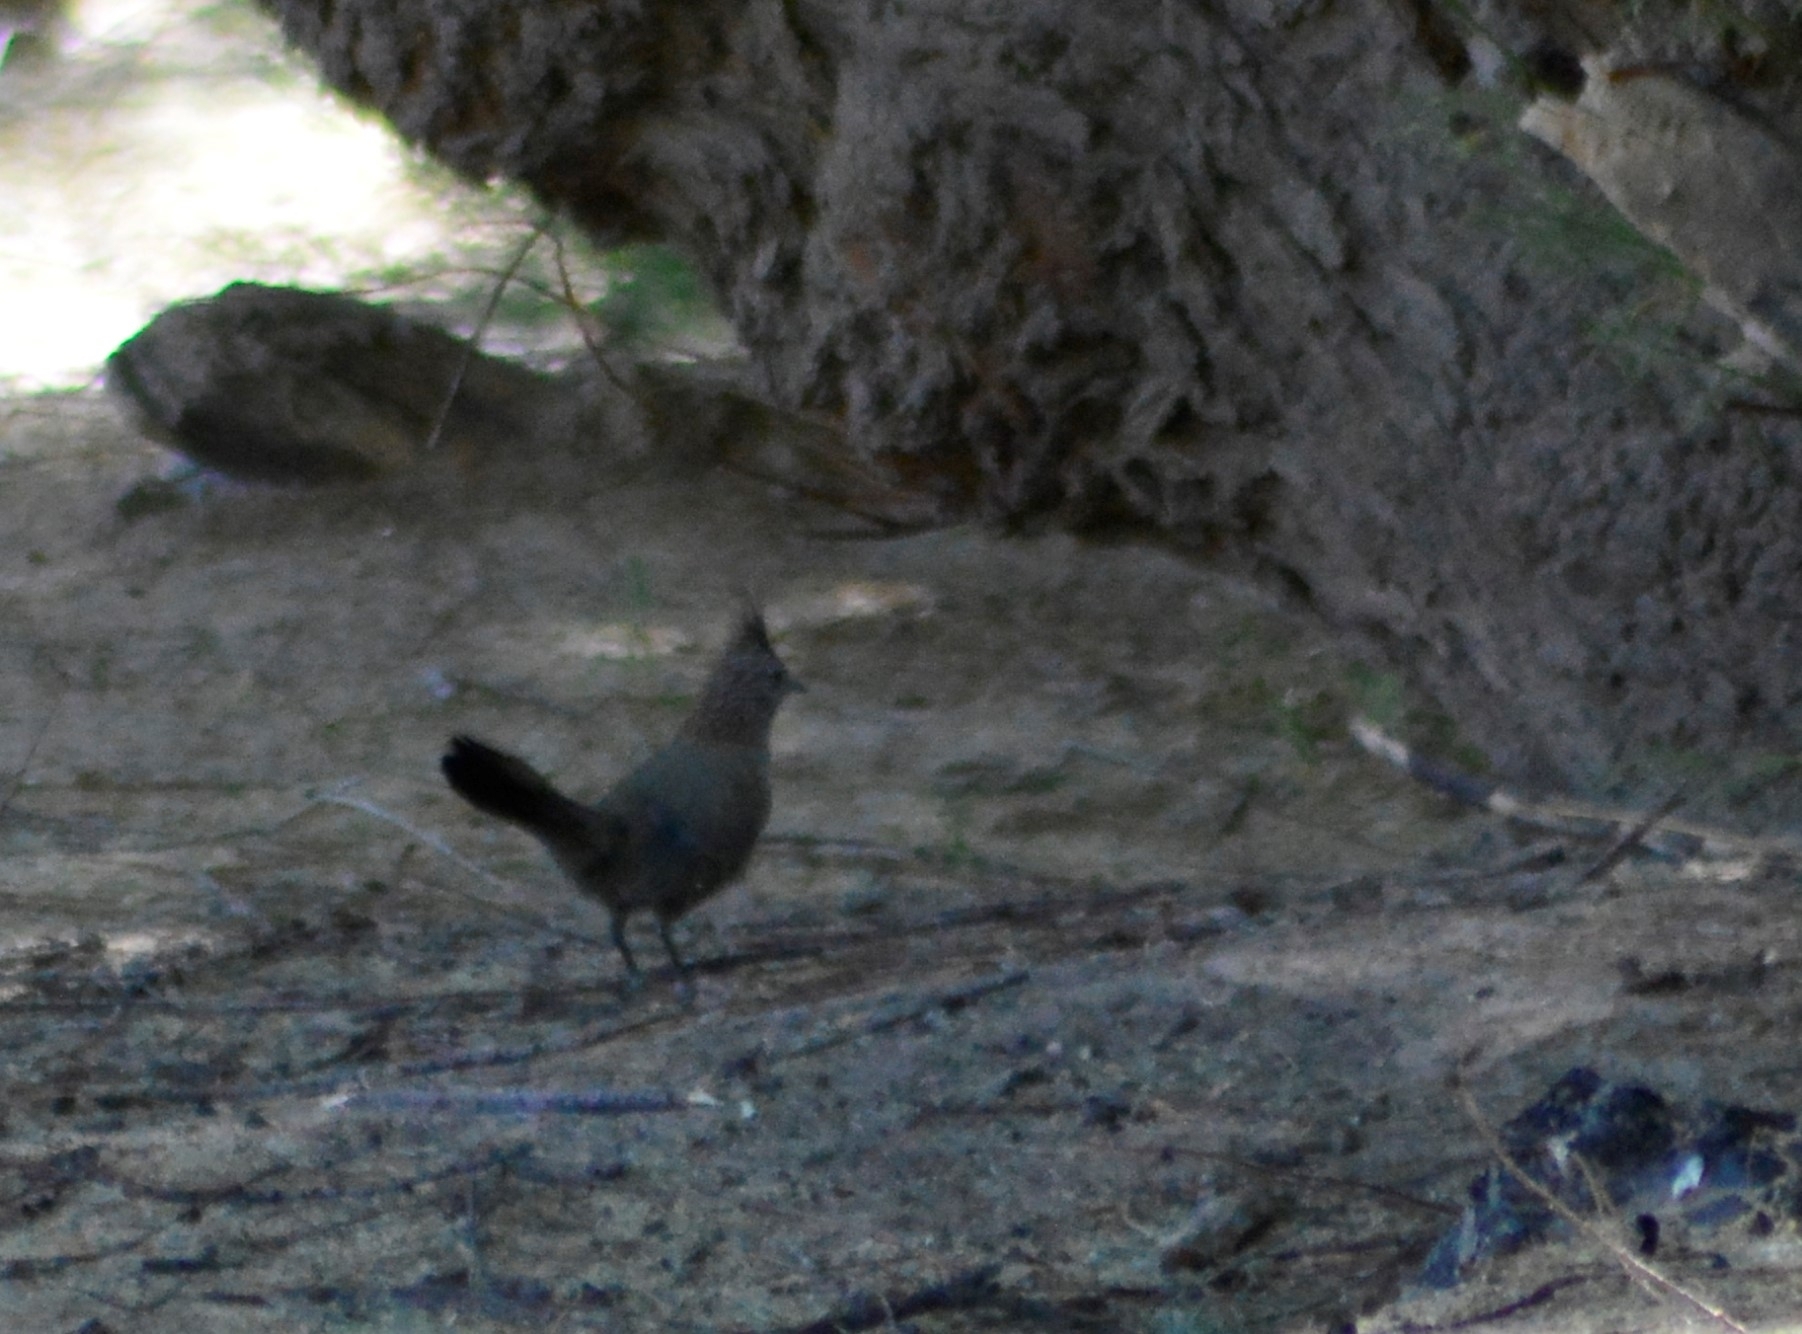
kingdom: Animalia
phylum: Chordata
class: Aves
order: Passeriformes
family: Rhinocryptidae
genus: Rhinocrypta
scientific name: Rhinocrypta lanceolata
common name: Crested gallito
